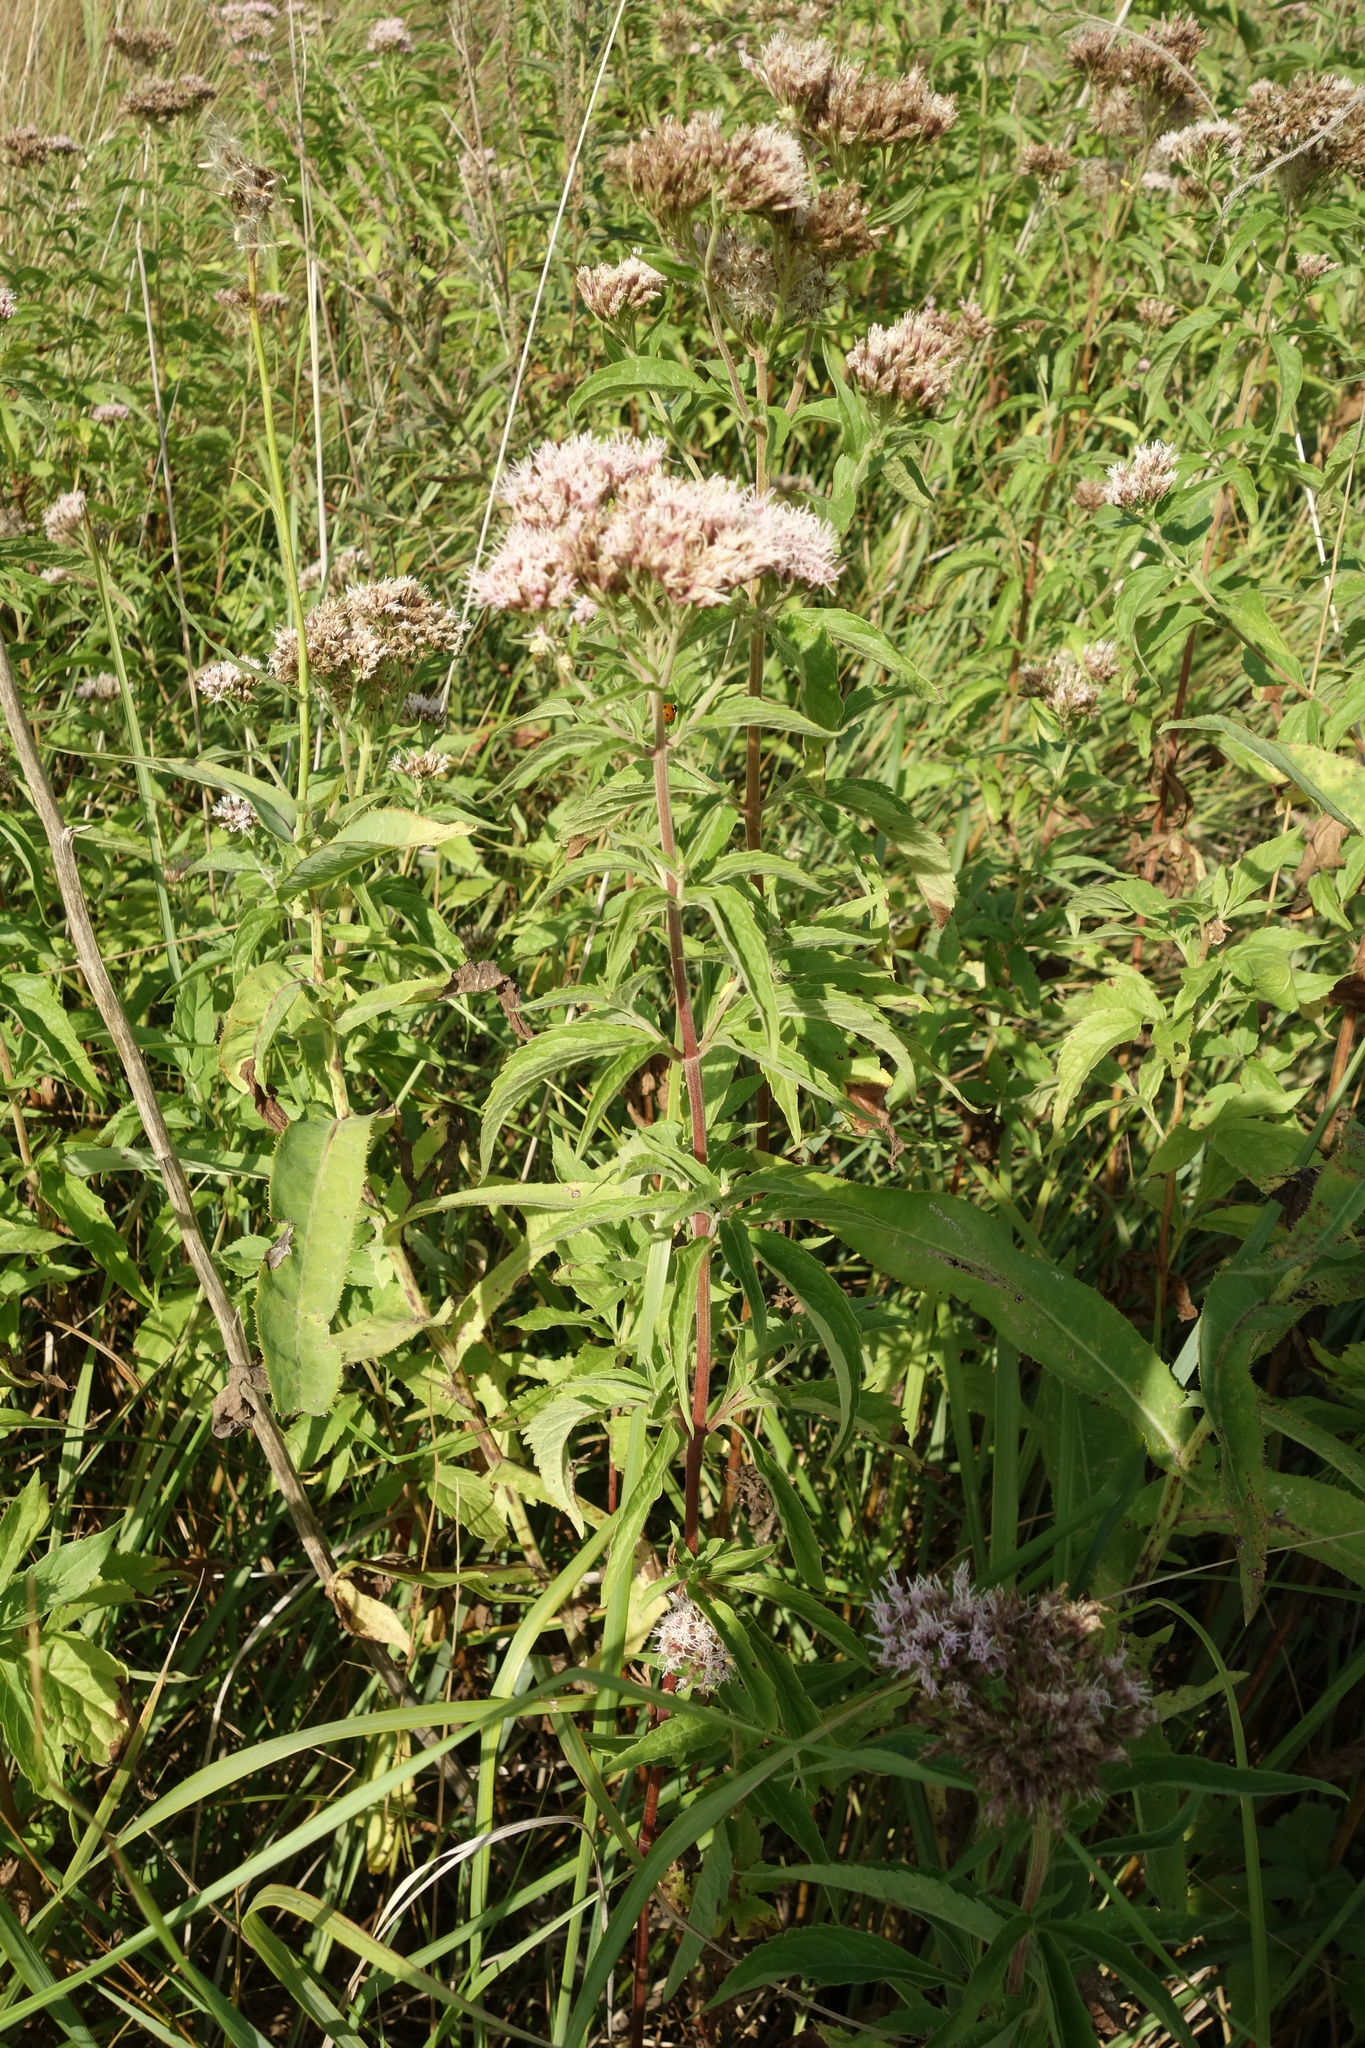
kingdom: Plantae
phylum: Tracheophyta
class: Magnoliopsida
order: Asterales
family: Asteraceae
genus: Eupatorium
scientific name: Eupatorium cannabinum
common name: Hemp-agrimony
